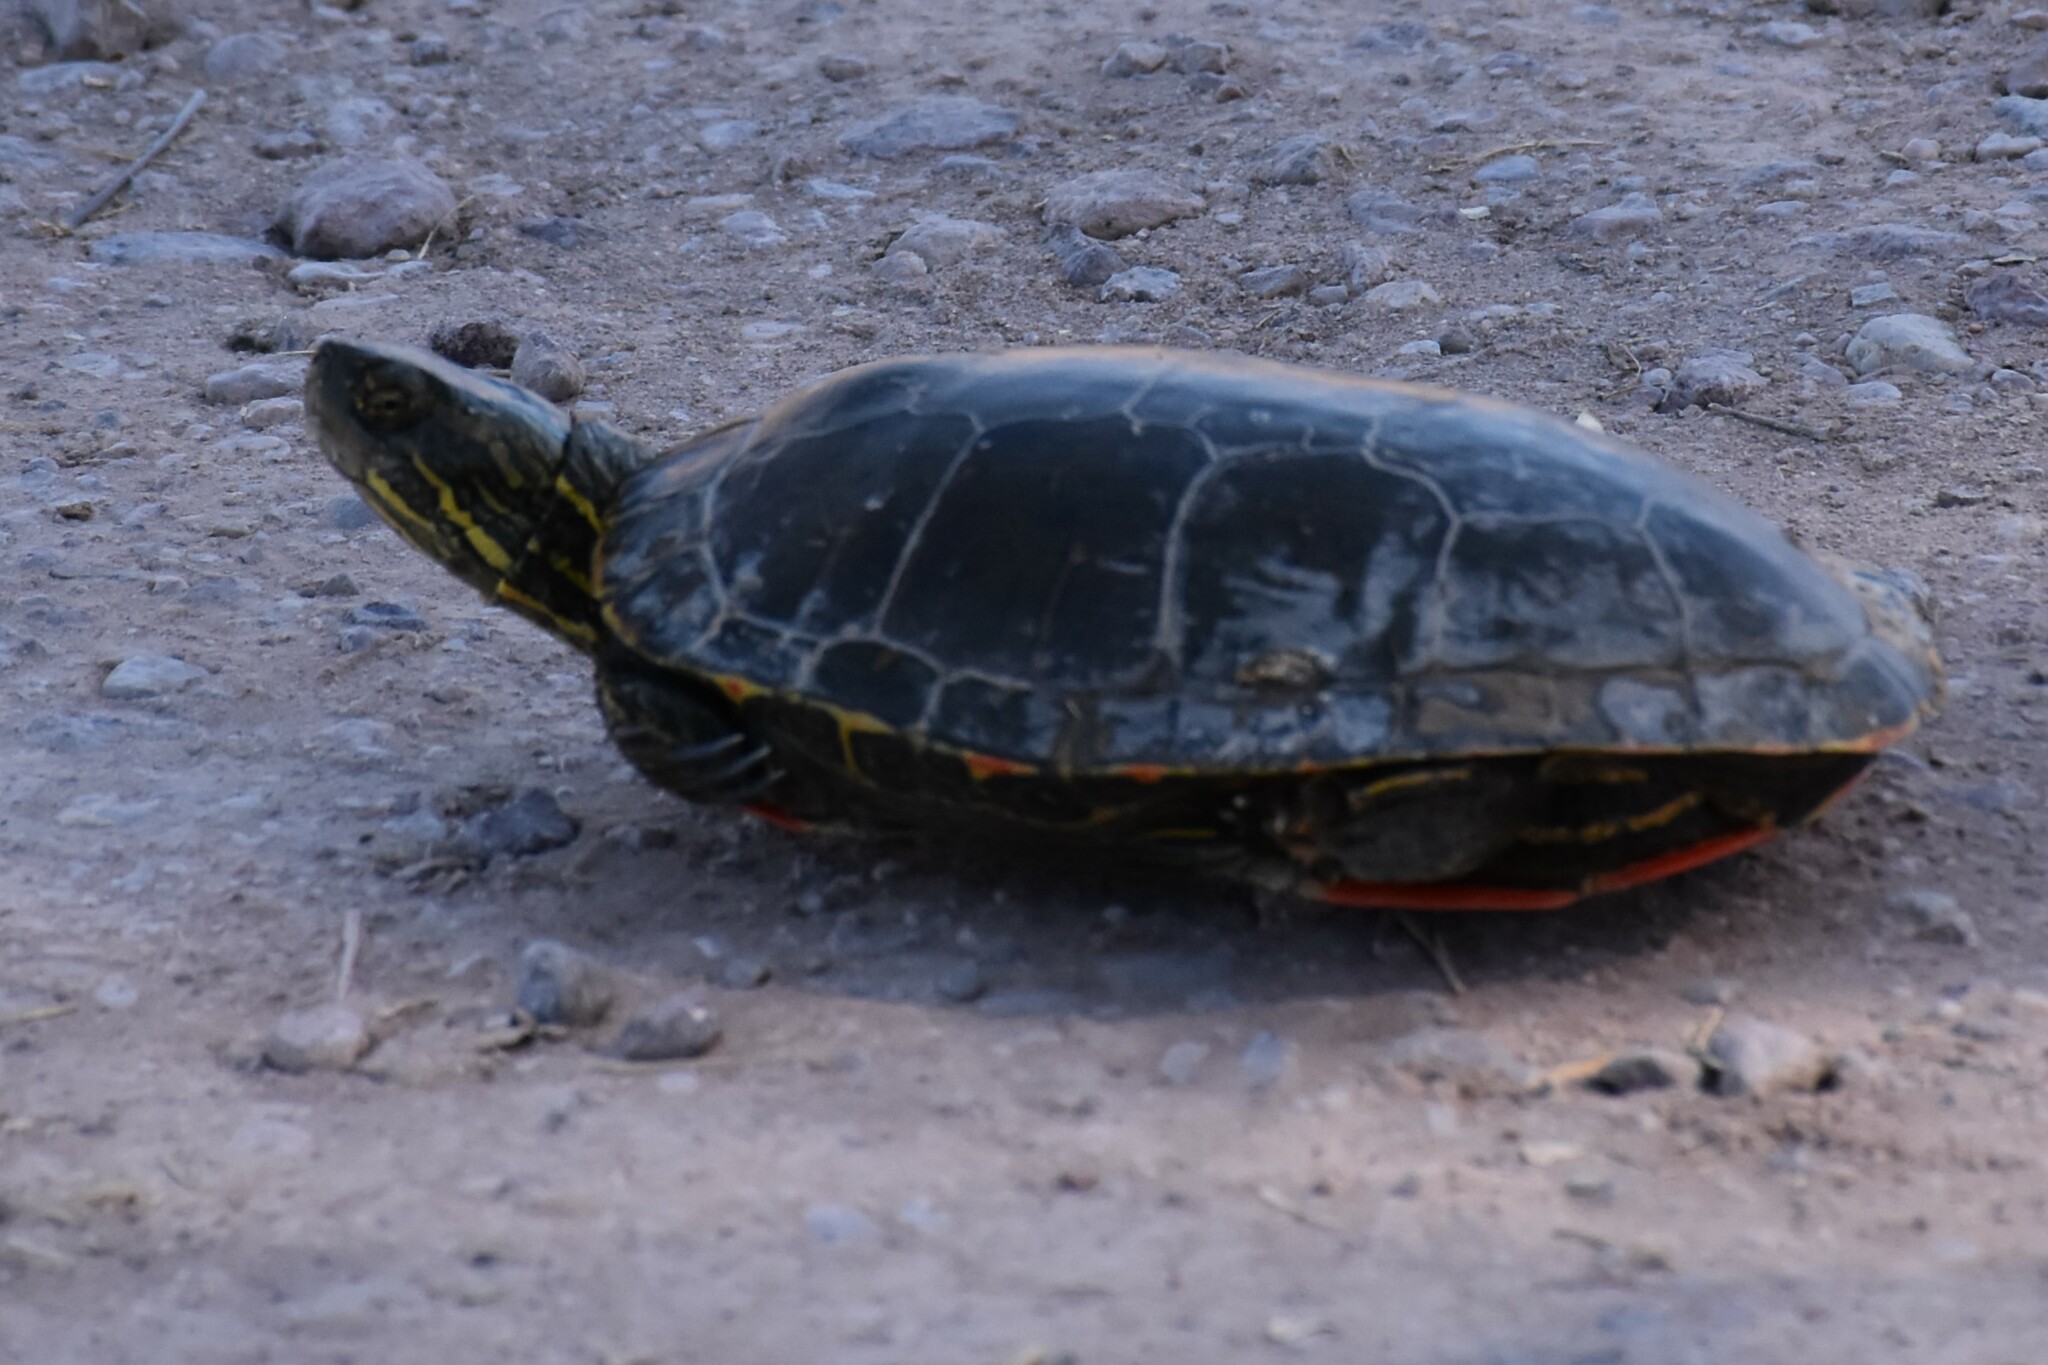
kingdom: Animalia
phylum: Chordata
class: Testudines
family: Emydidae
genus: Chrysemys
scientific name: Chrysemys picta
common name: Painted turtle
